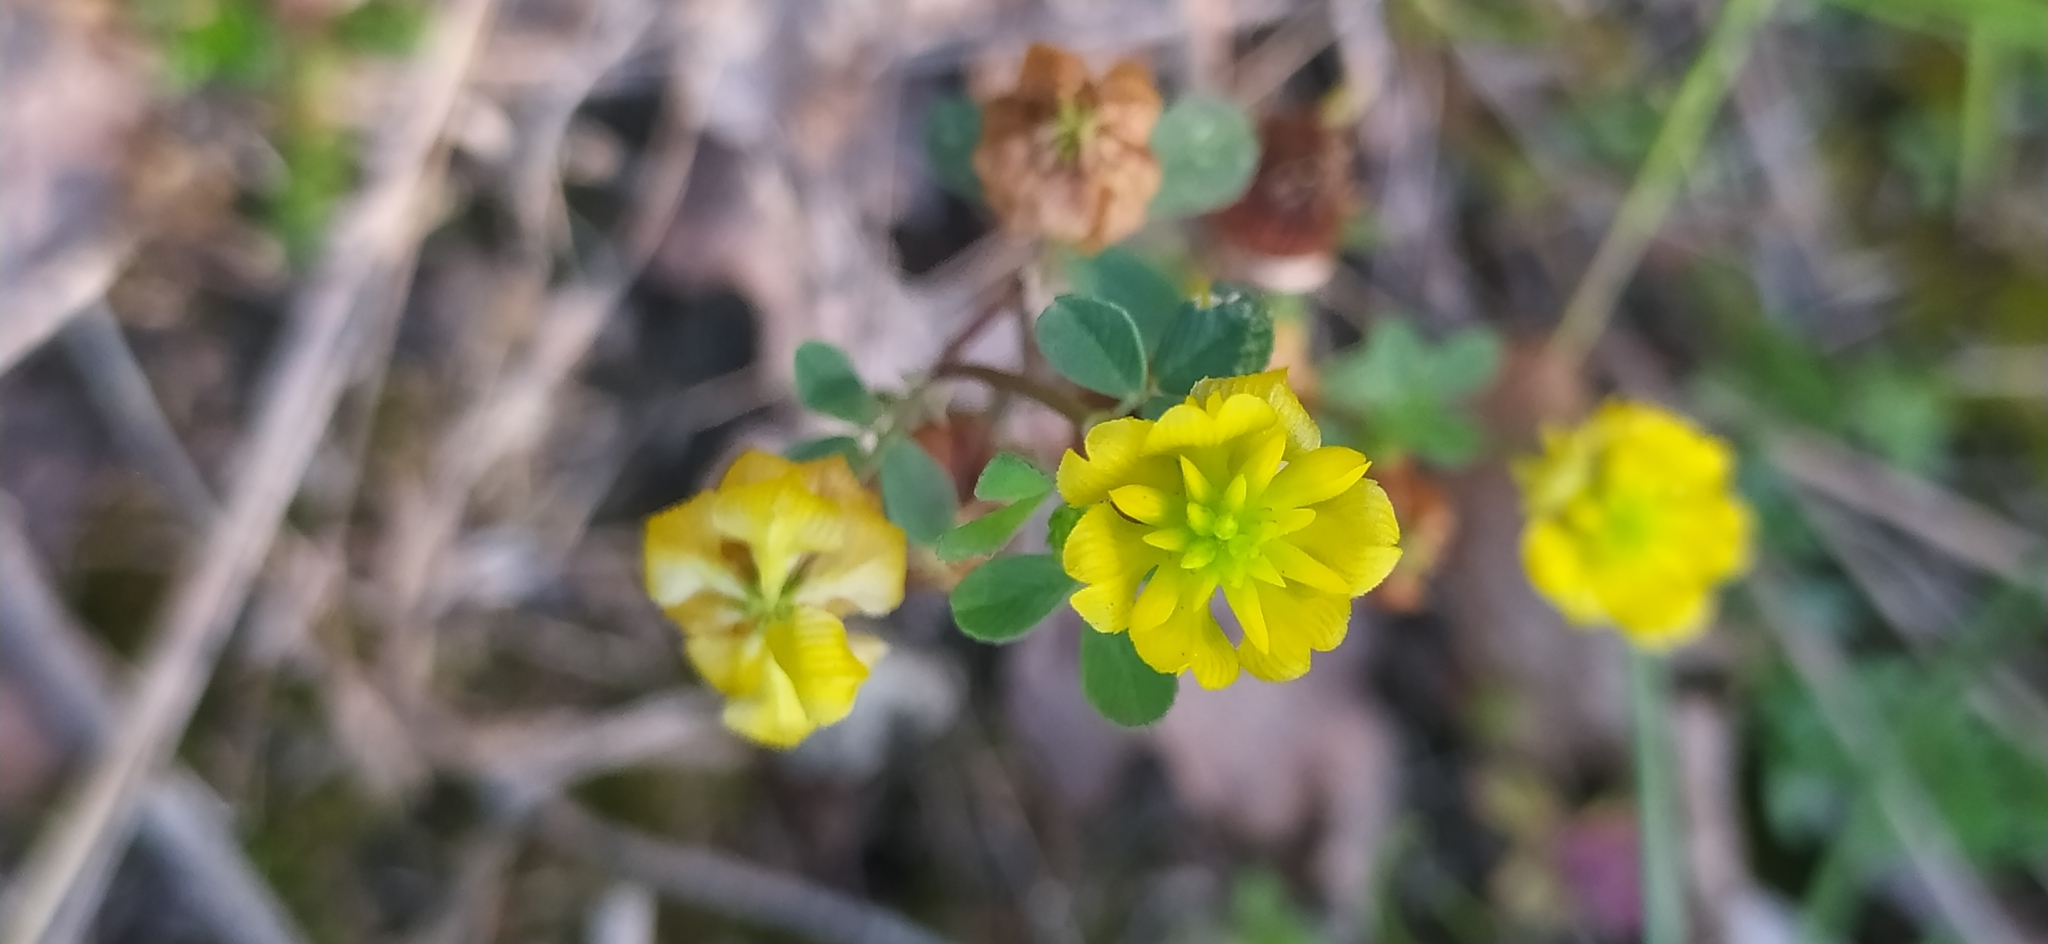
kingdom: Plantae
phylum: Tracheophyta
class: Magnoliopsida
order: Fabales
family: Fabaceae
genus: Trifolium
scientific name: Trifolium campestre
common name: Field clover
